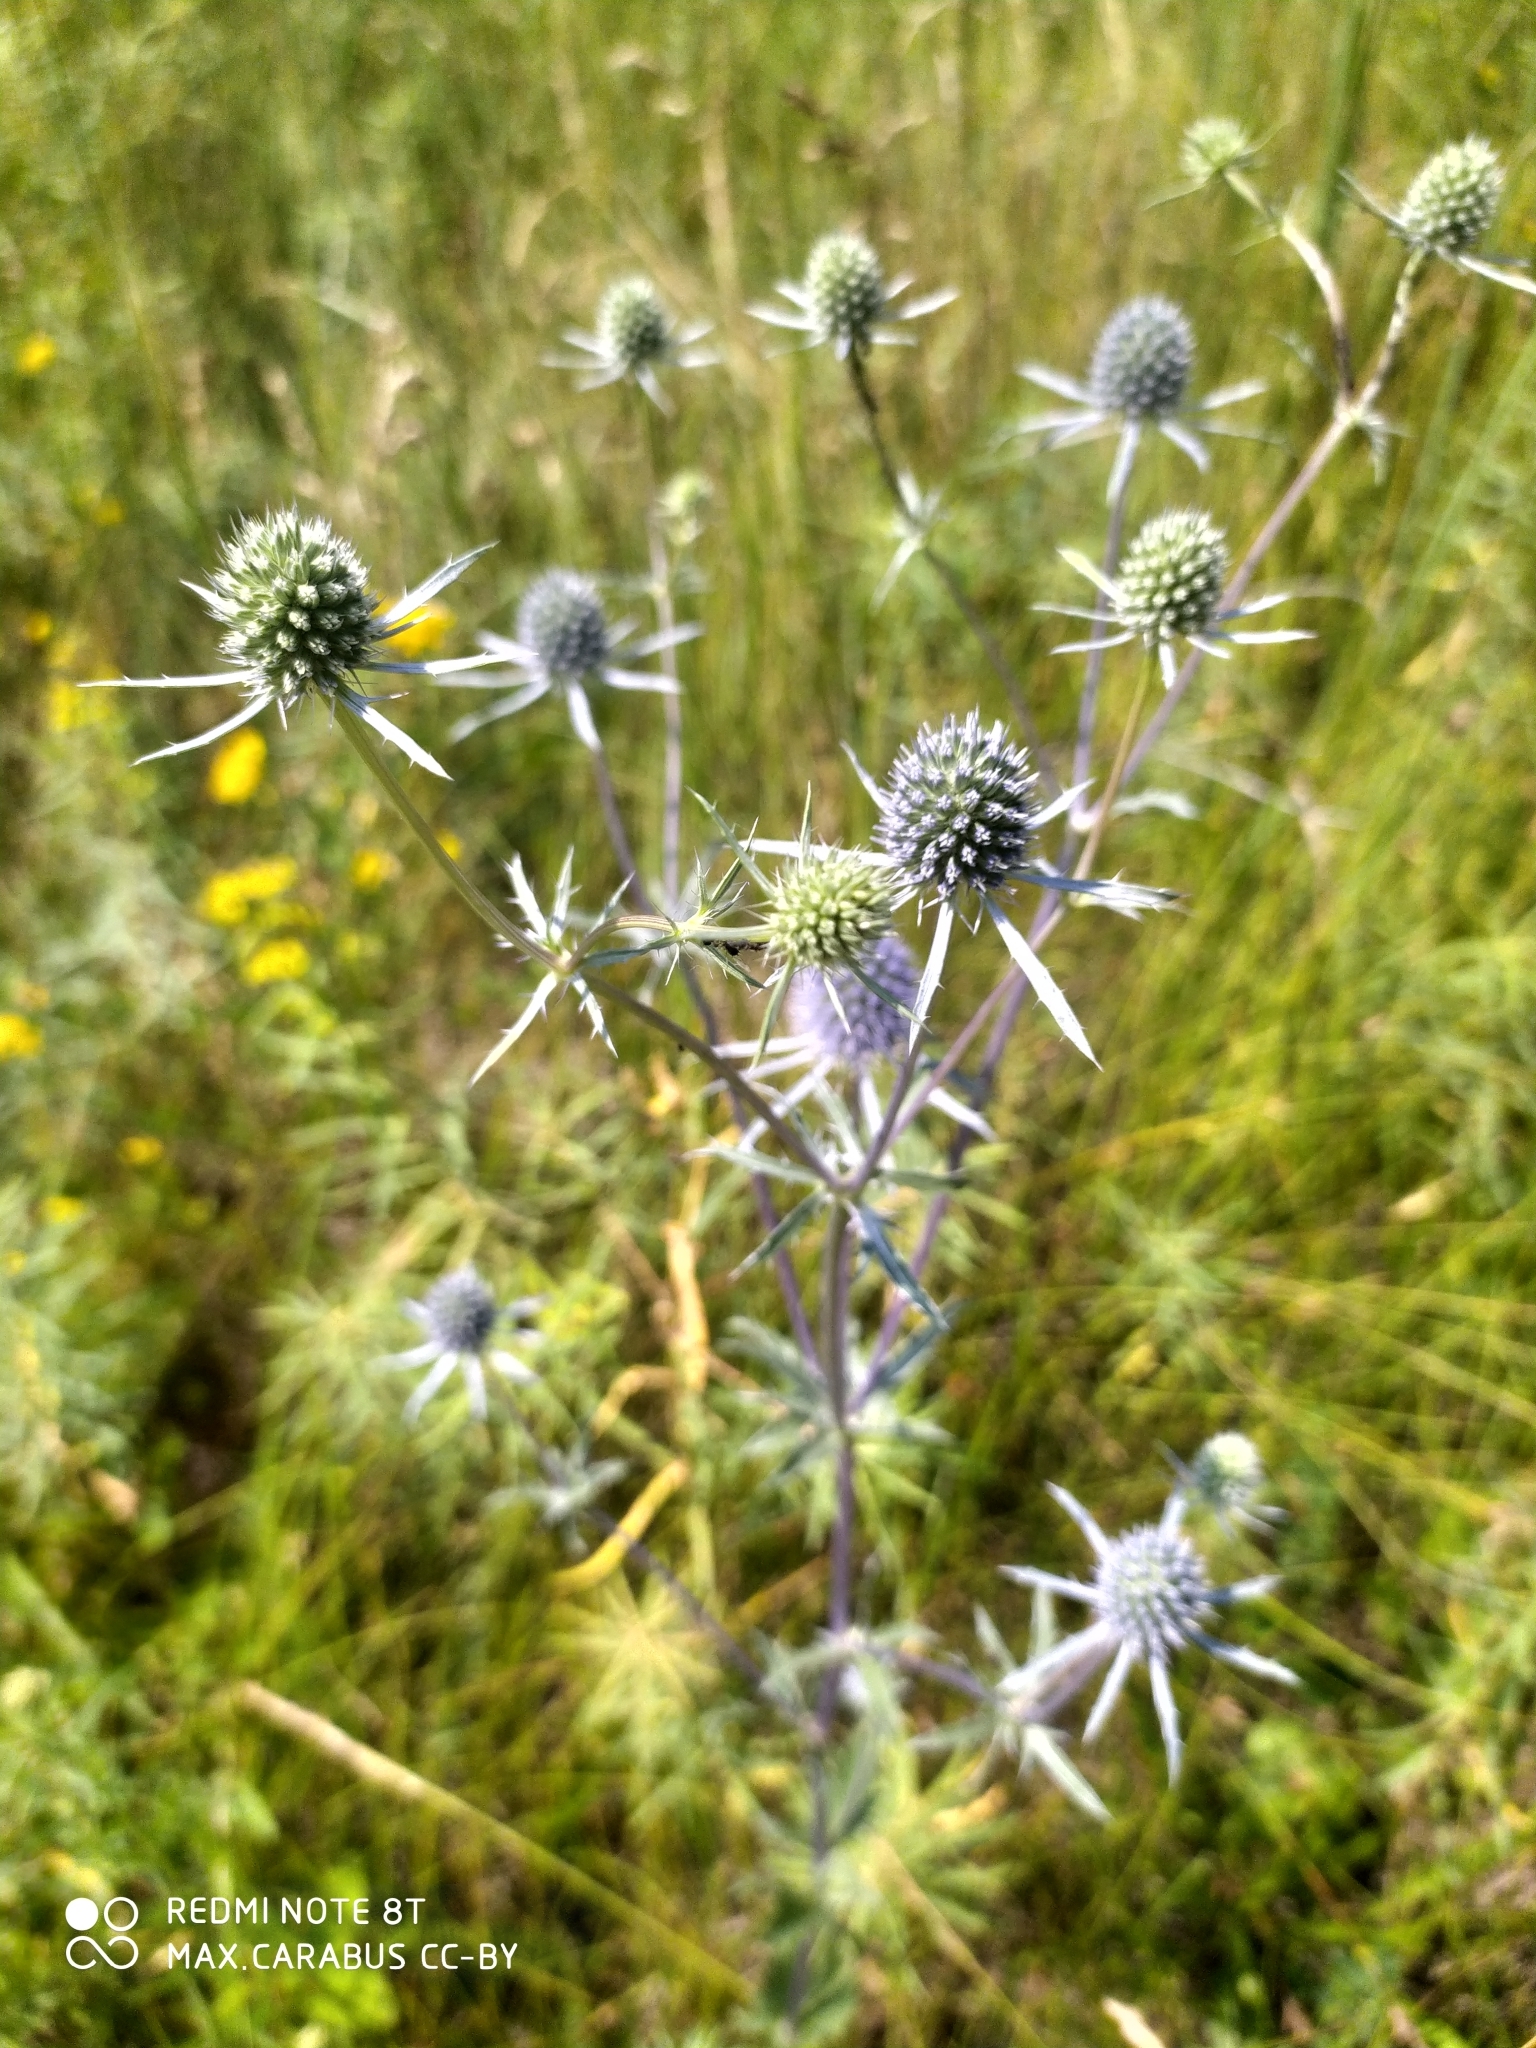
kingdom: Plantae
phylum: Tracheophyta
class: Magnoliopsida
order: Apiales
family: Apiaceae
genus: Eryngium
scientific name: Eryngium planum
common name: Blue eryngo
